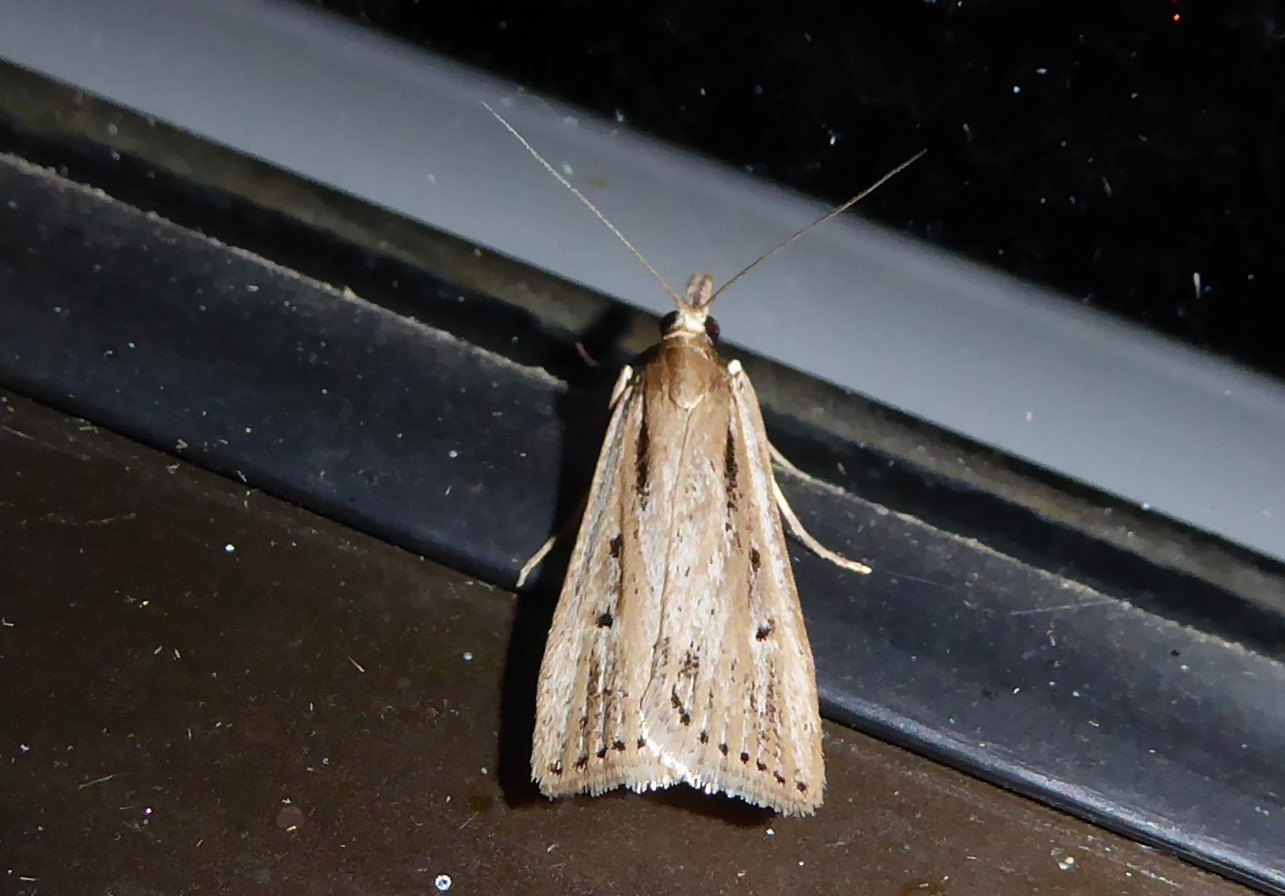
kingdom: Animalia
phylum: Arthropoda
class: Insecta
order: Lepidoptera
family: Crambidae
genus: Eudonia
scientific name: Eudonia sabulosella
